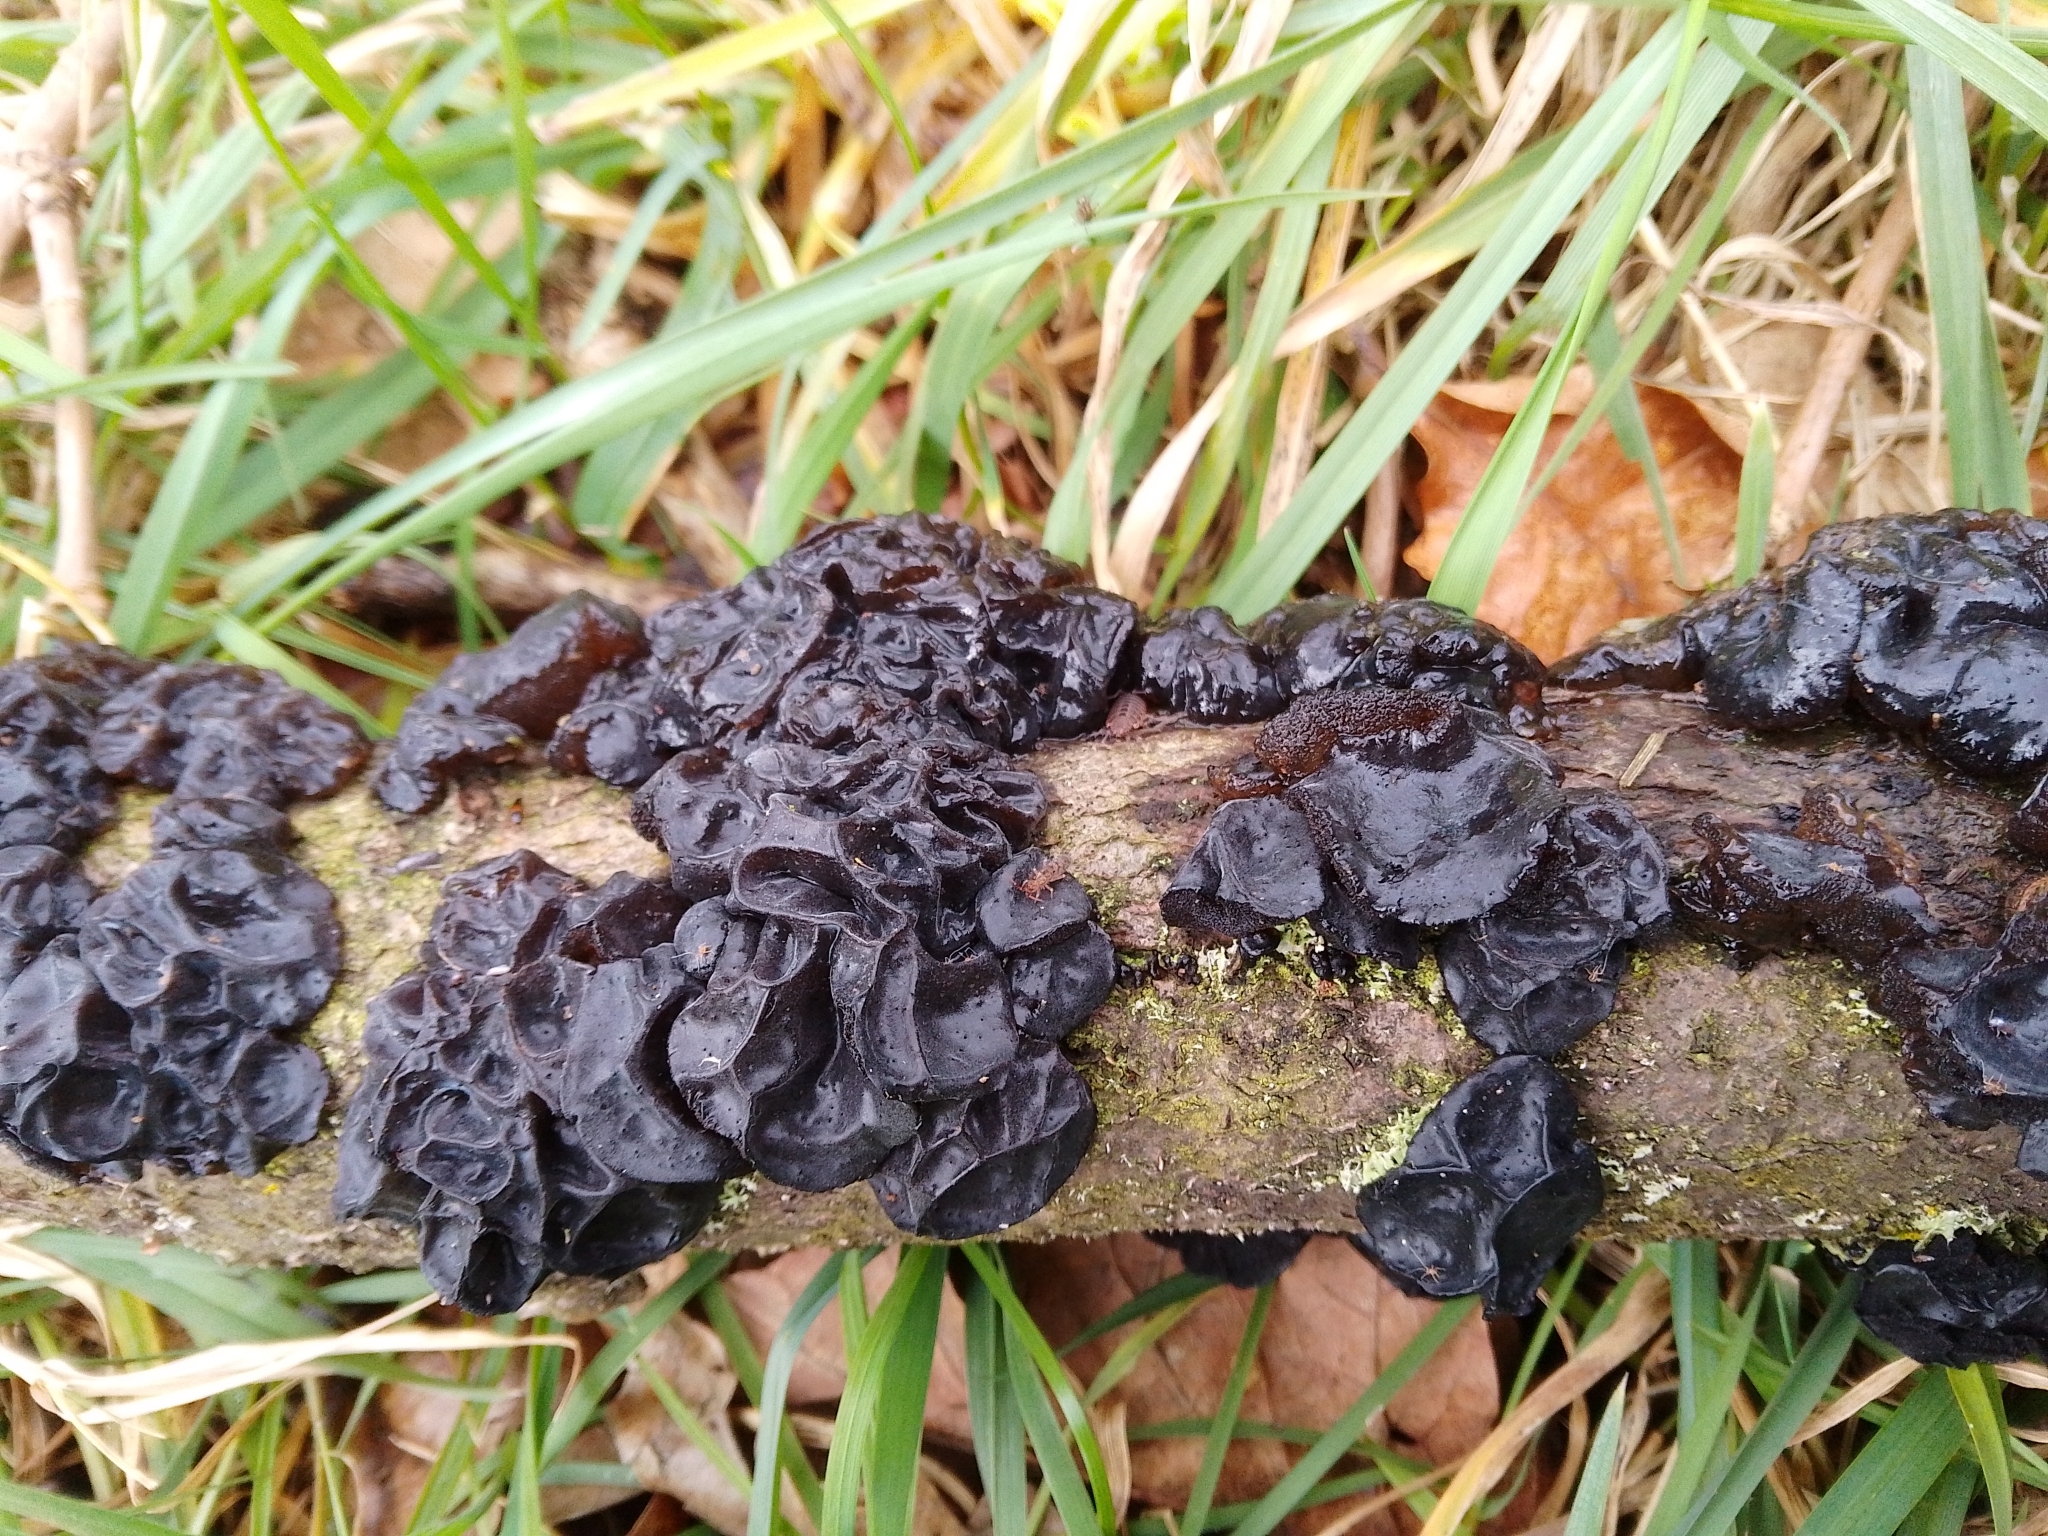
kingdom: Fungi
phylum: Basidiomycota
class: Agaricomycetes
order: Auriculariales
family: Auriculariaceae
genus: Exidia
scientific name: Exidia glandulosa
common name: Witches' butter
